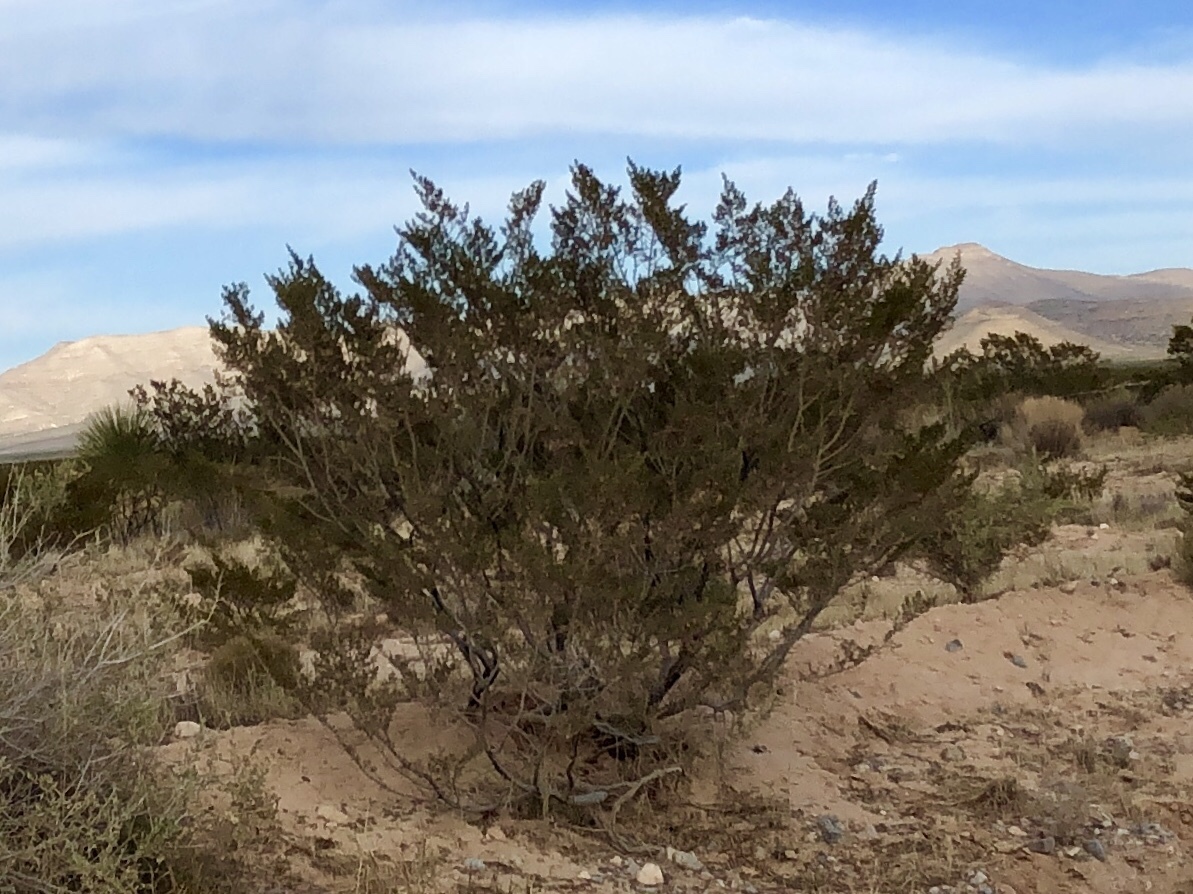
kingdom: Plantae
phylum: Tracheophyta
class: Magnoliopsida
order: Zygophyllales
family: Zygophyllaceae
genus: Larrea
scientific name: Larrea tridentata
